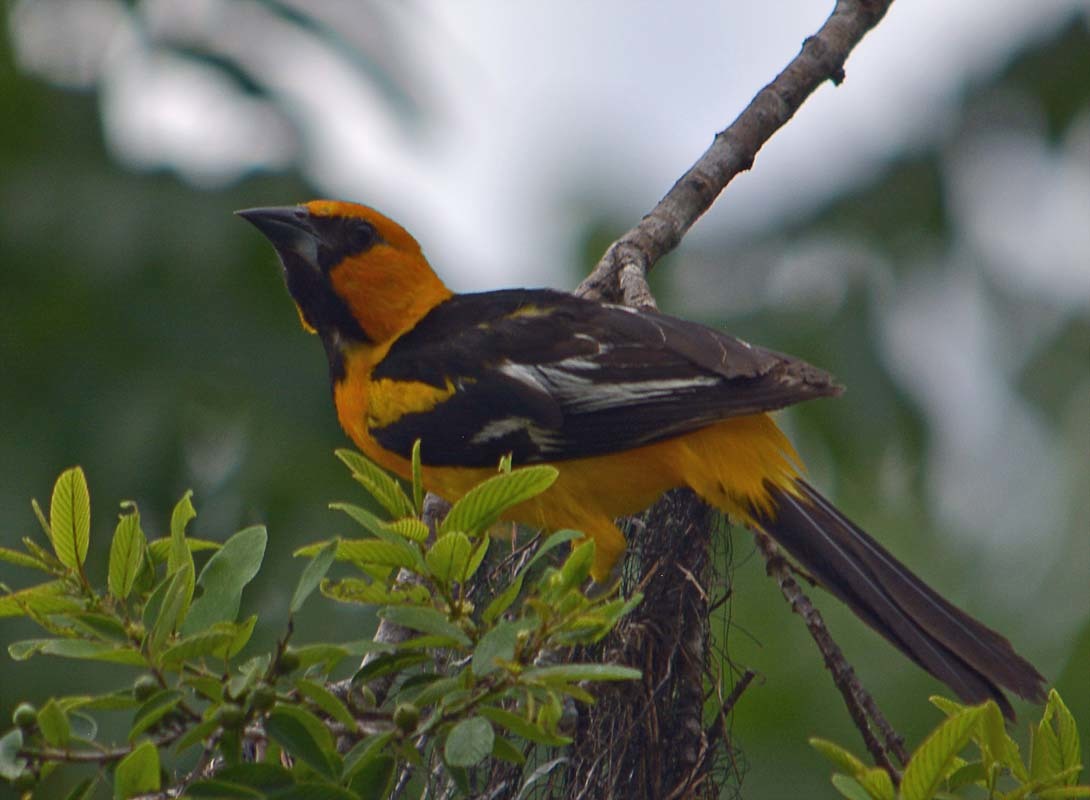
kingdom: Animalia
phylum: Chordata
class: Aves
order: Passeriformes
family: Icteridae
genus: Icterus
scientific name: Icterus gularis
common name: Altamira oriole
